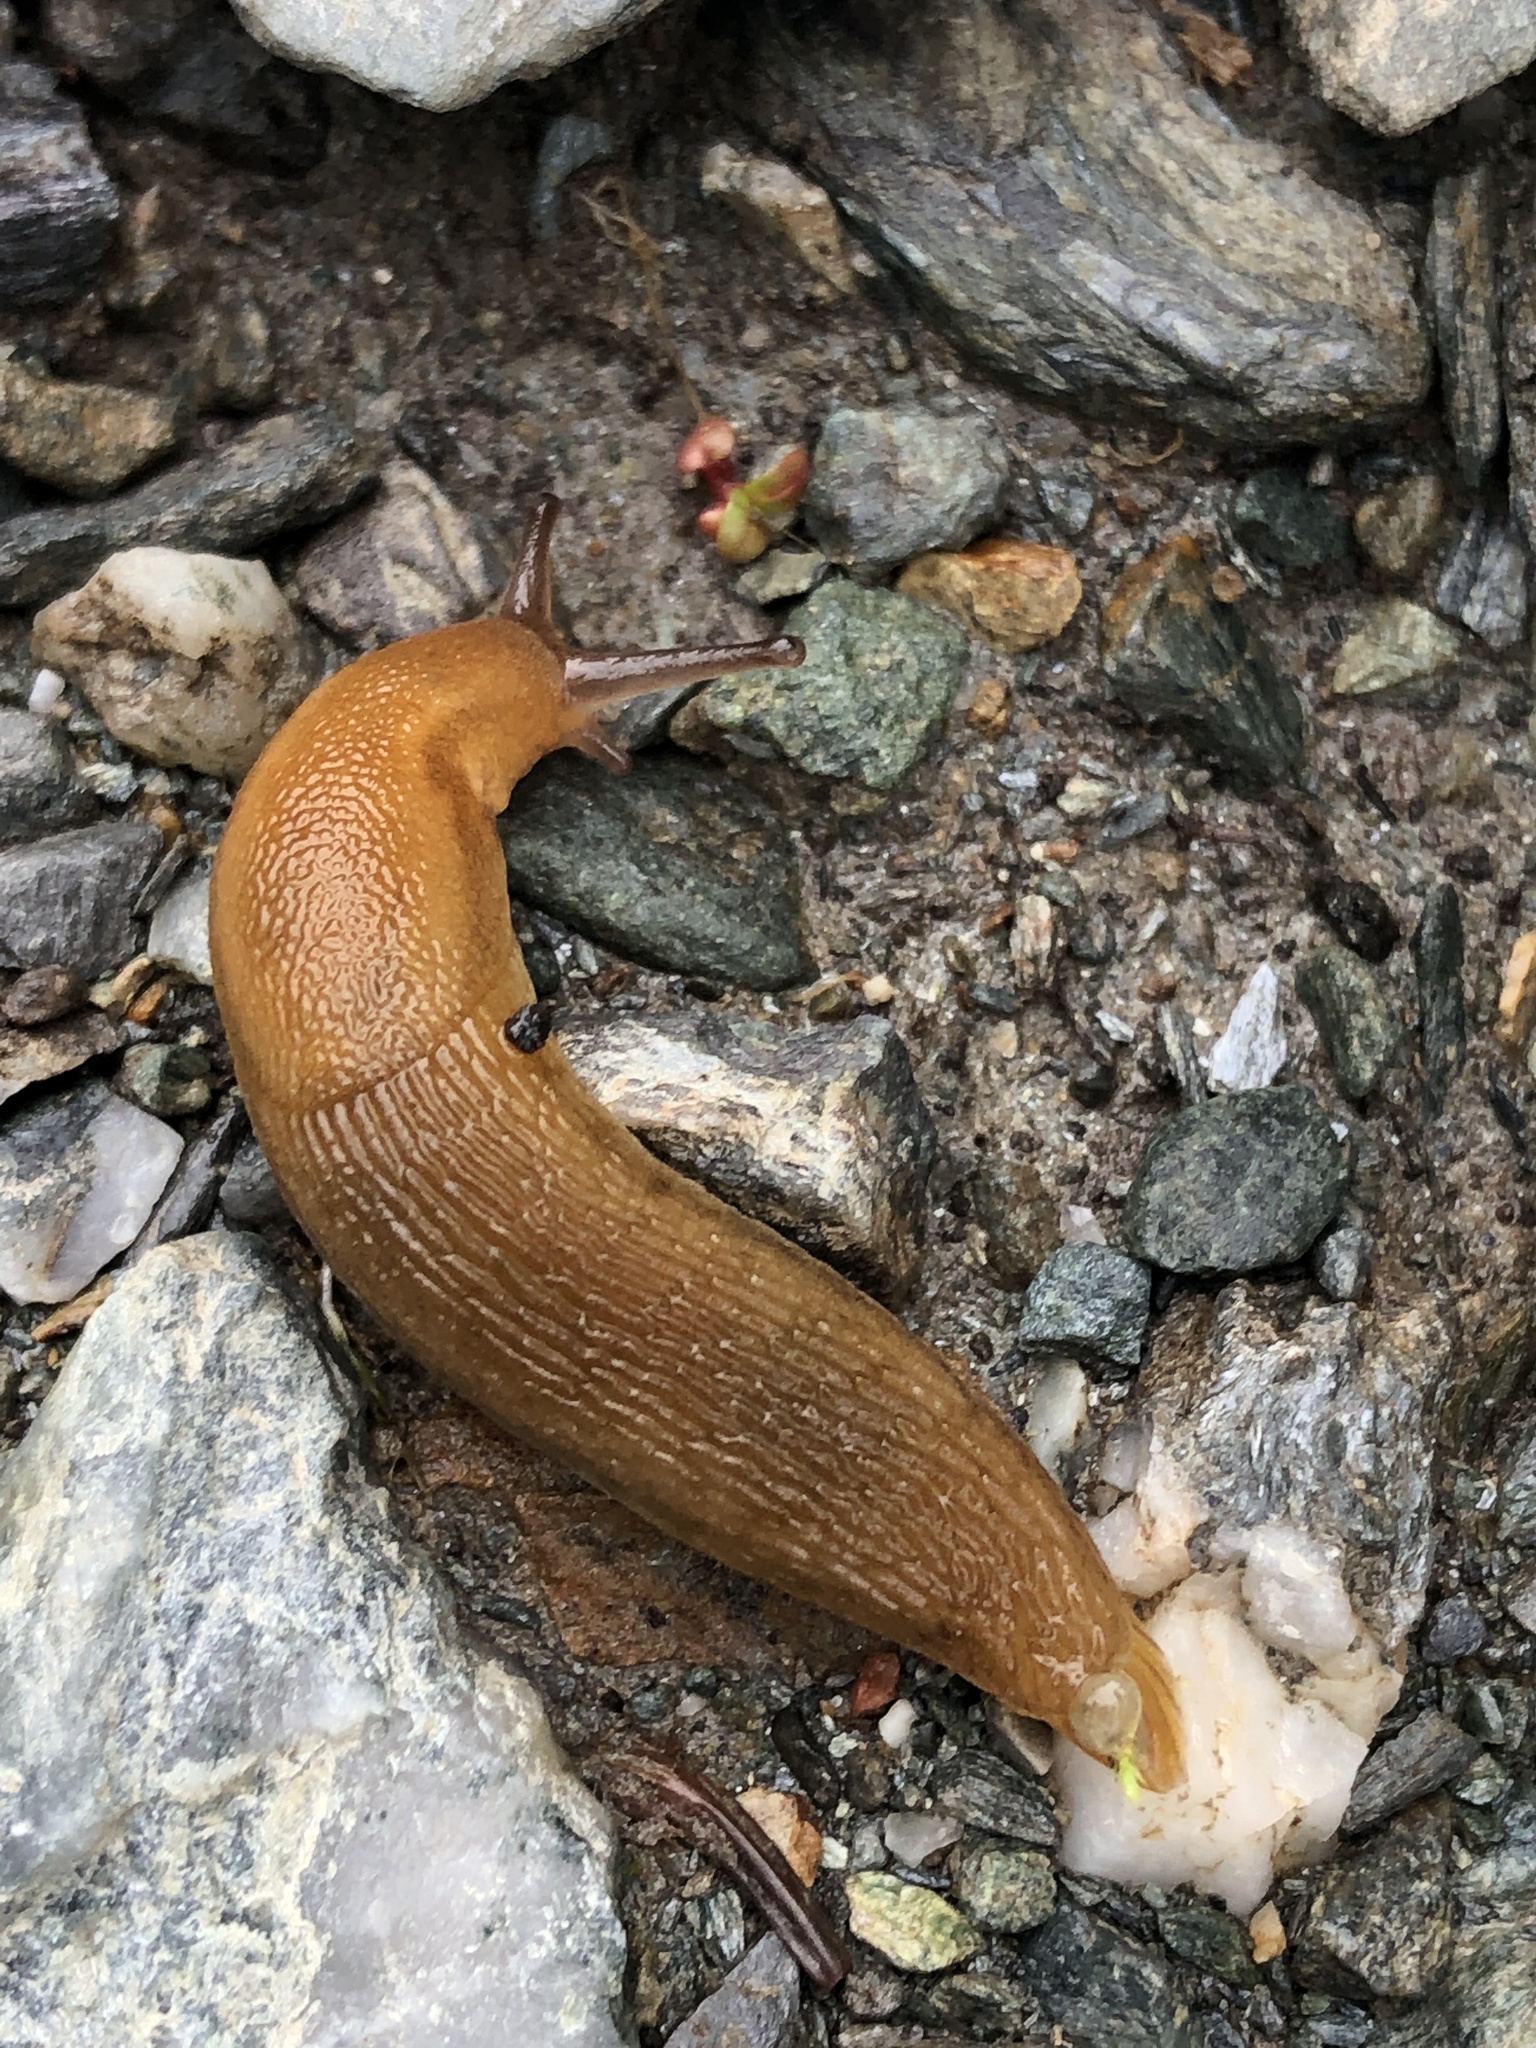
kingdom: Animalia
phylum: Mollusca
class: Gastropoda
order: Stylommatophora
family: Arionidae
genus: Mesarion
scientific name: Mesarion
